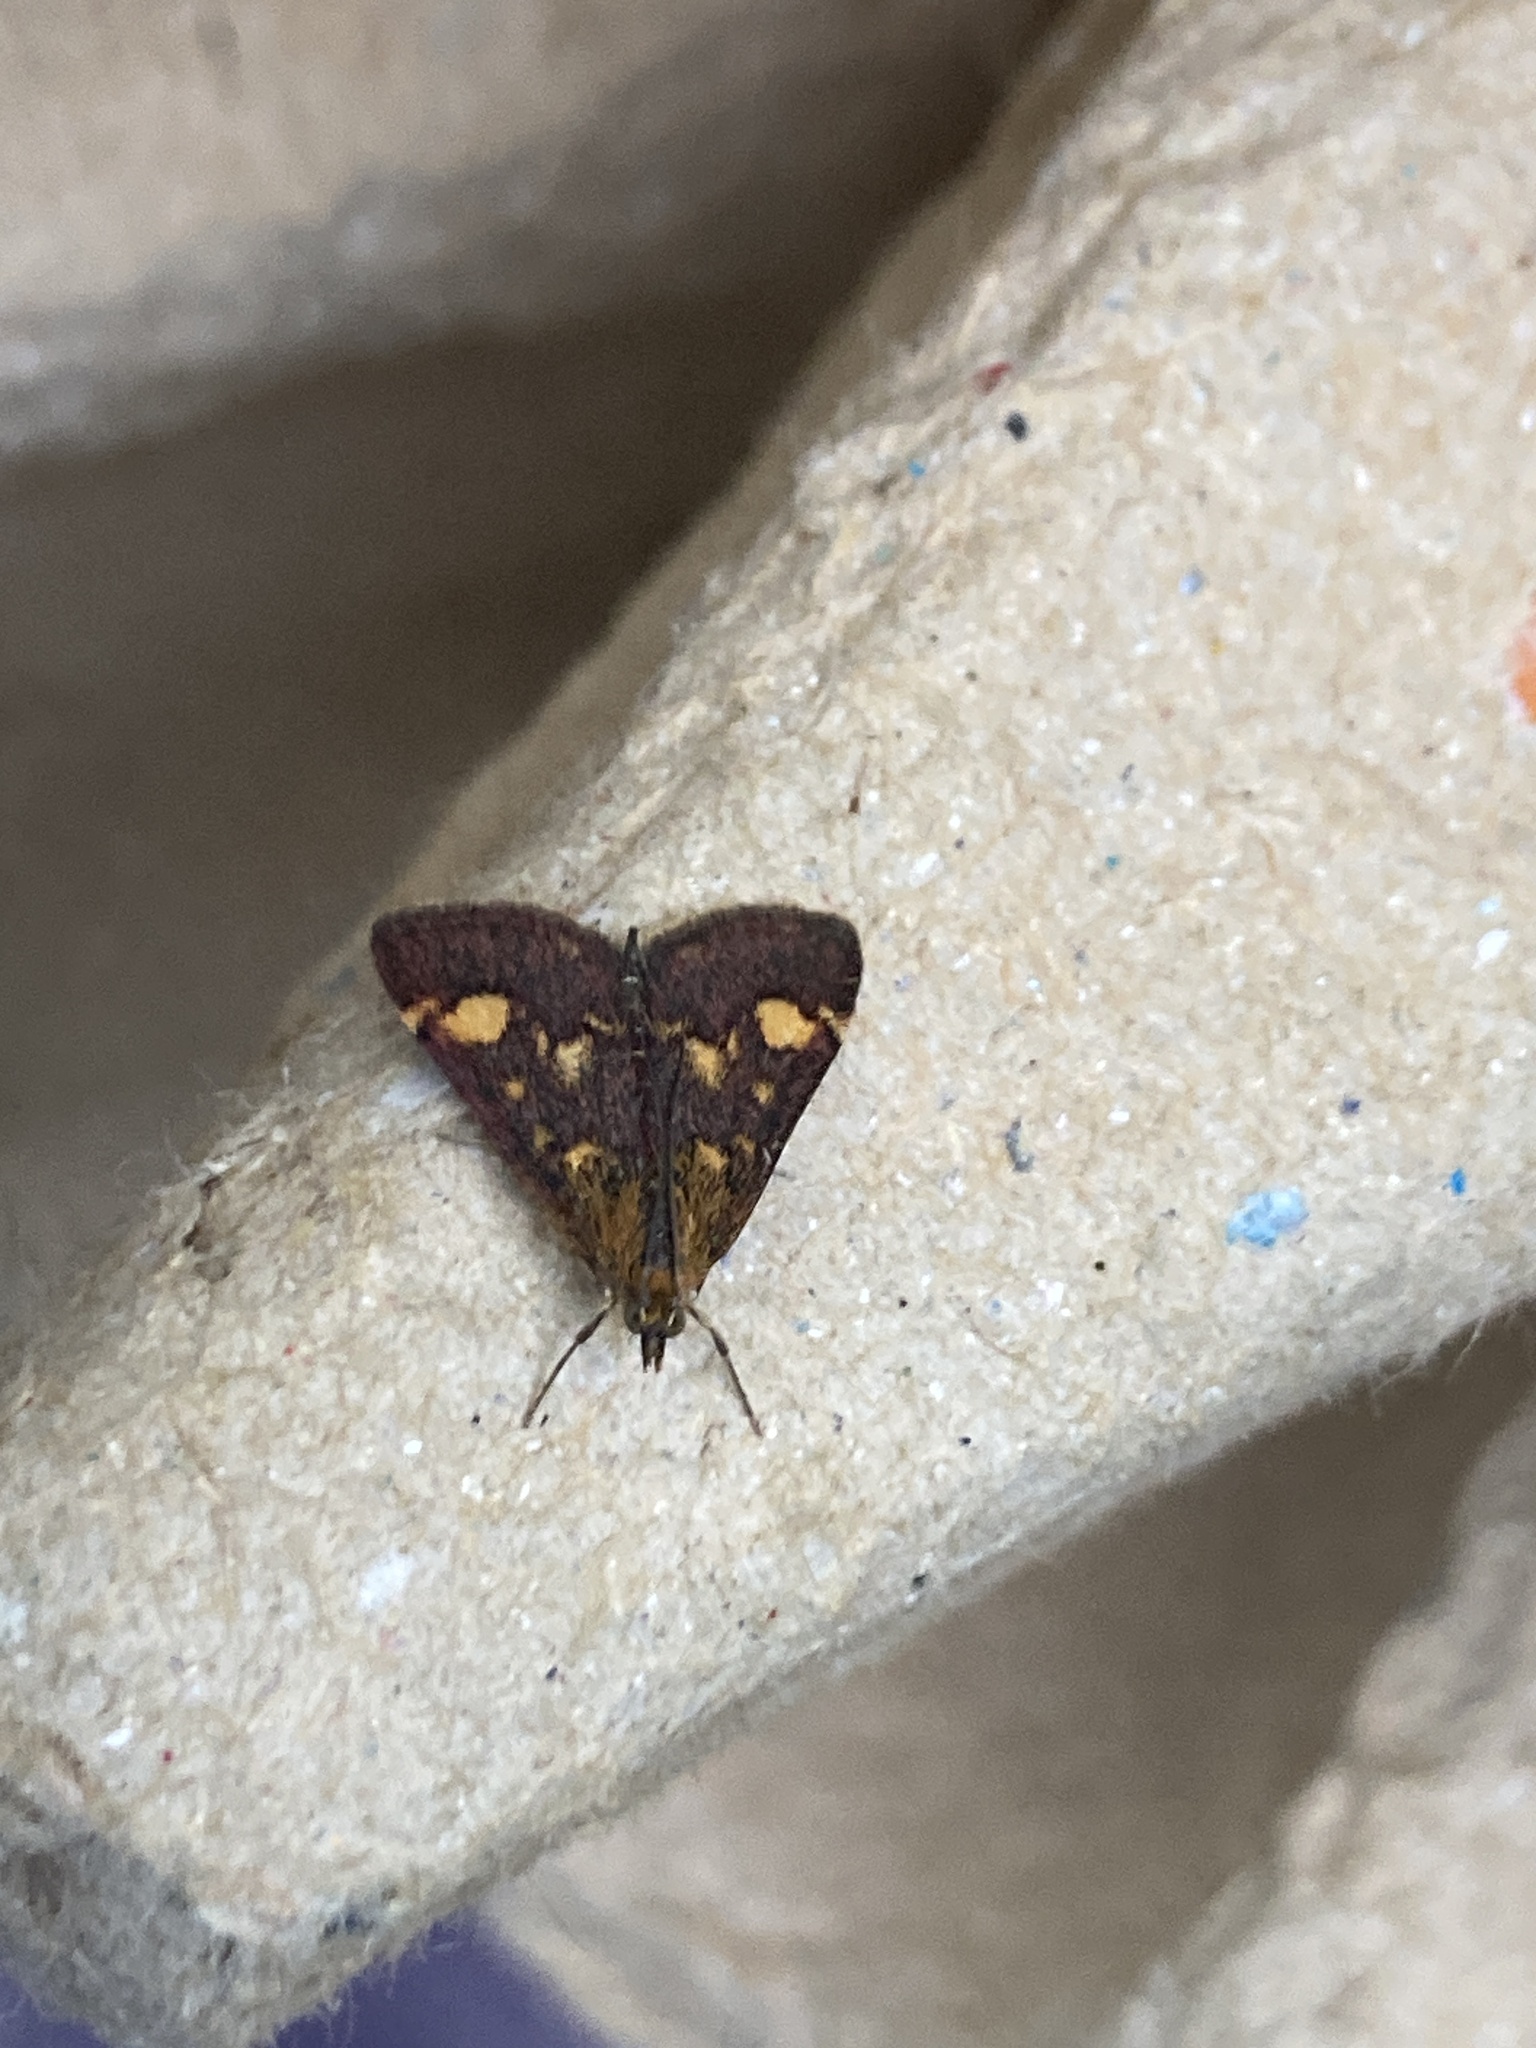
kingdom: Animalia
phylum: Arthropoda
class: Insecta
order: Lepidoptera
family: Crambidae
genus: Pyrausta
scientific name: Pyrausta aurata
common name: Small purple & gold
